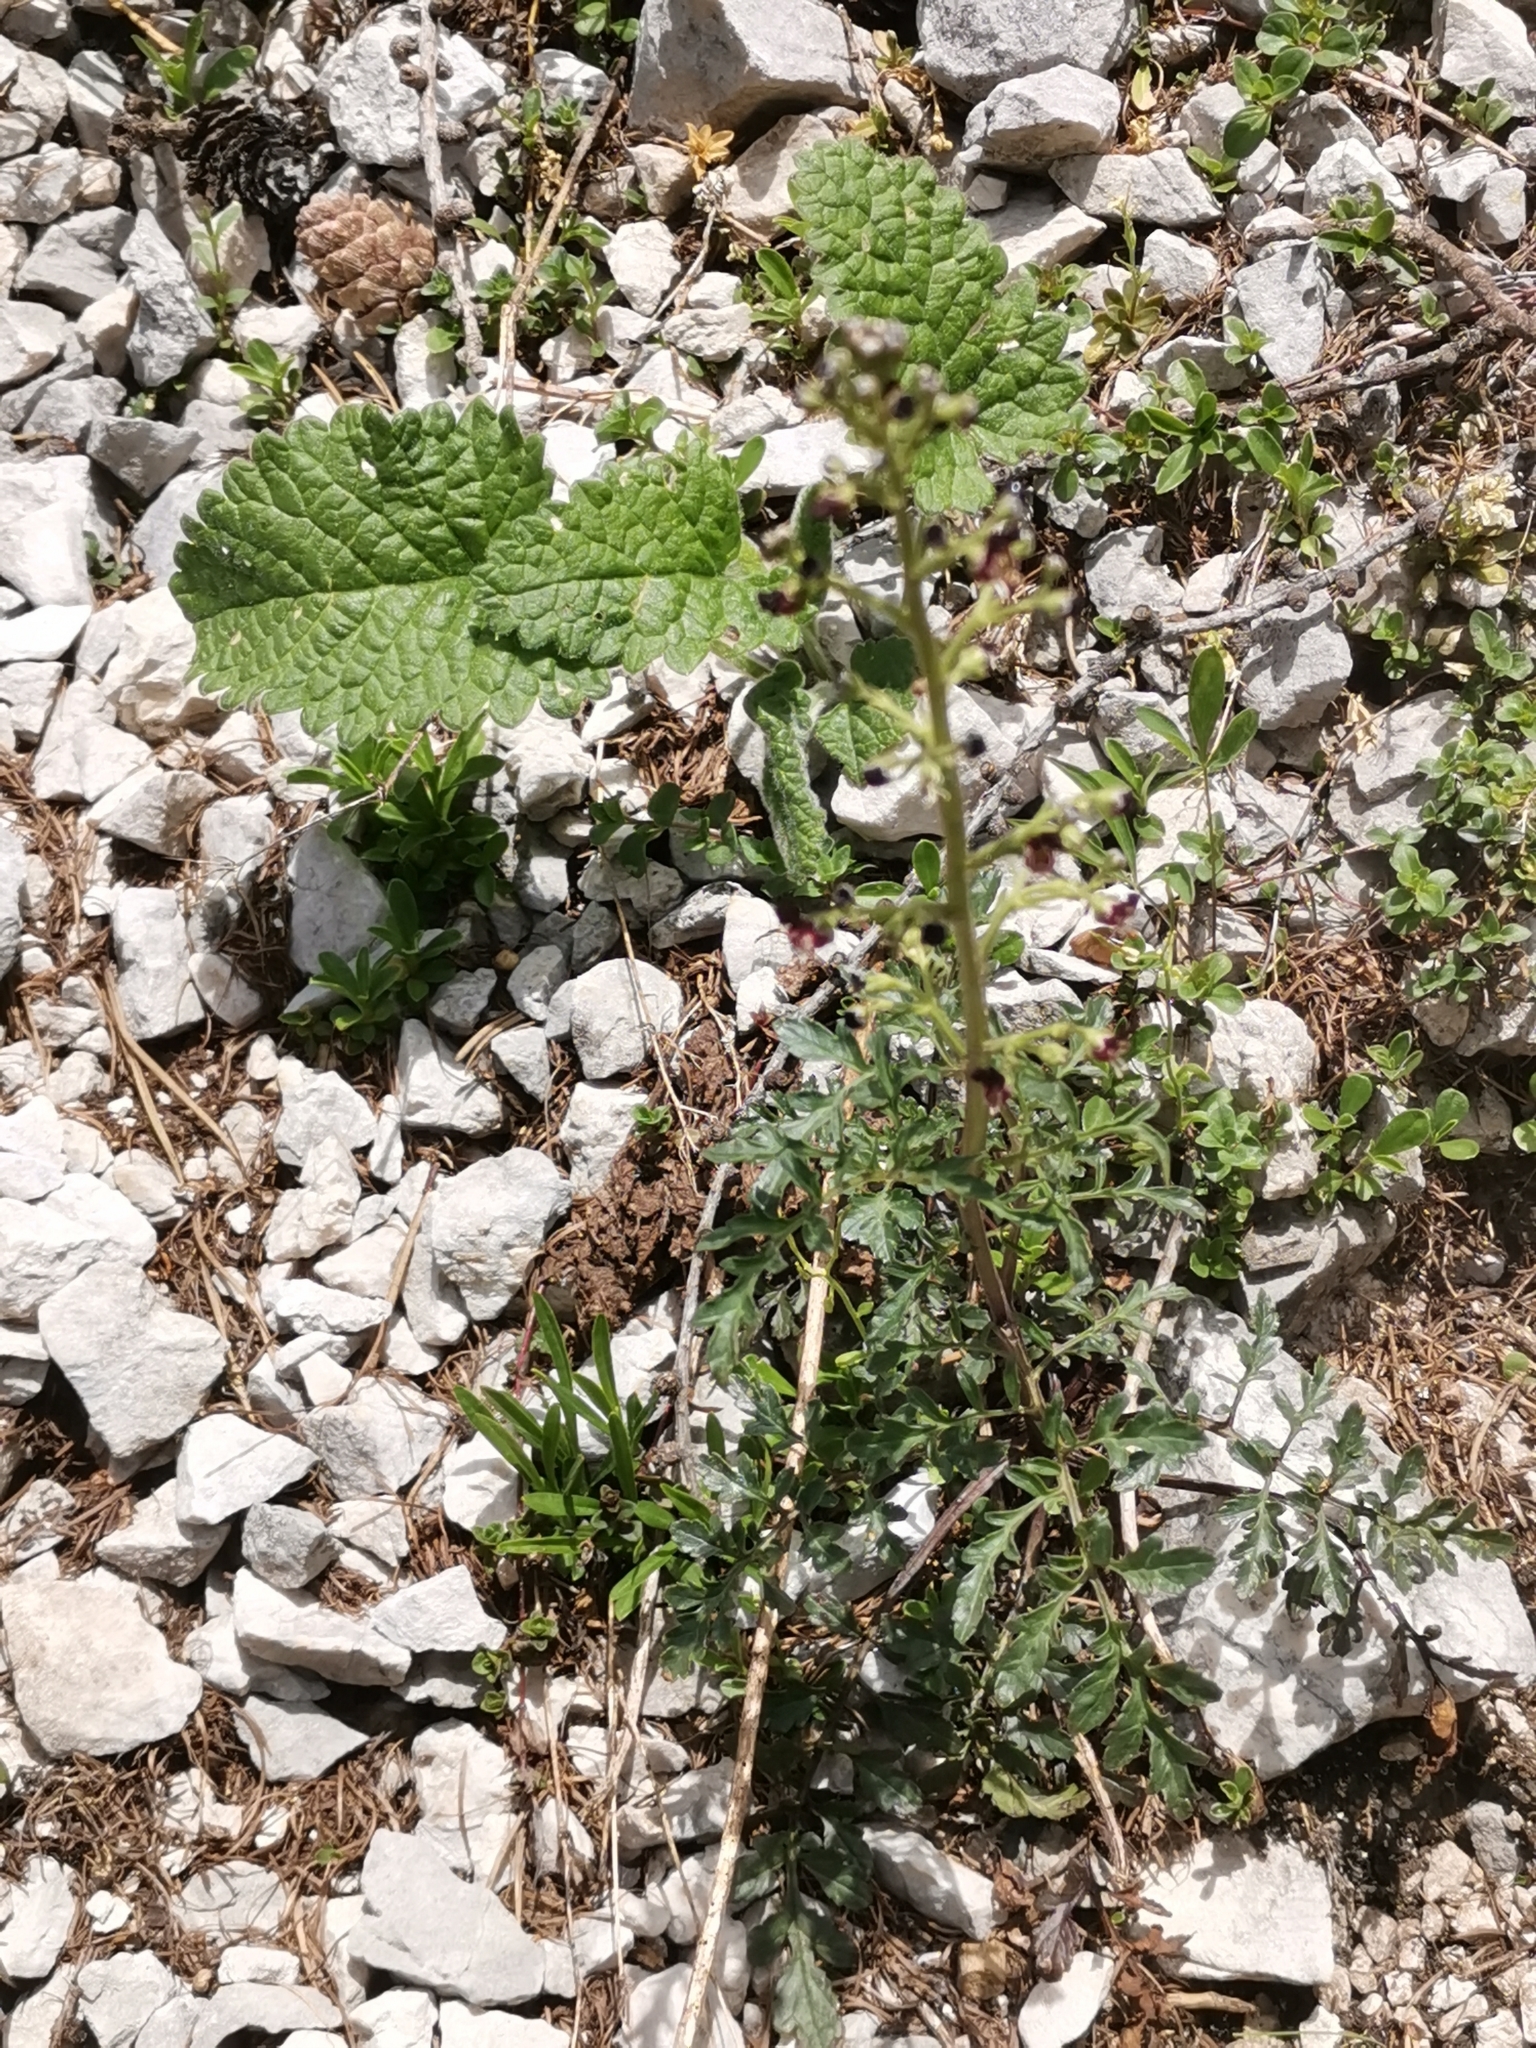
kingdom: Plantae
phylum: Tracheophyta
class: Magnoliopsida
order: Lamiales
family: Scrophulariaceae
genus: Scrophularia
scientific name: Scrophularia canina
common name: French figwort
